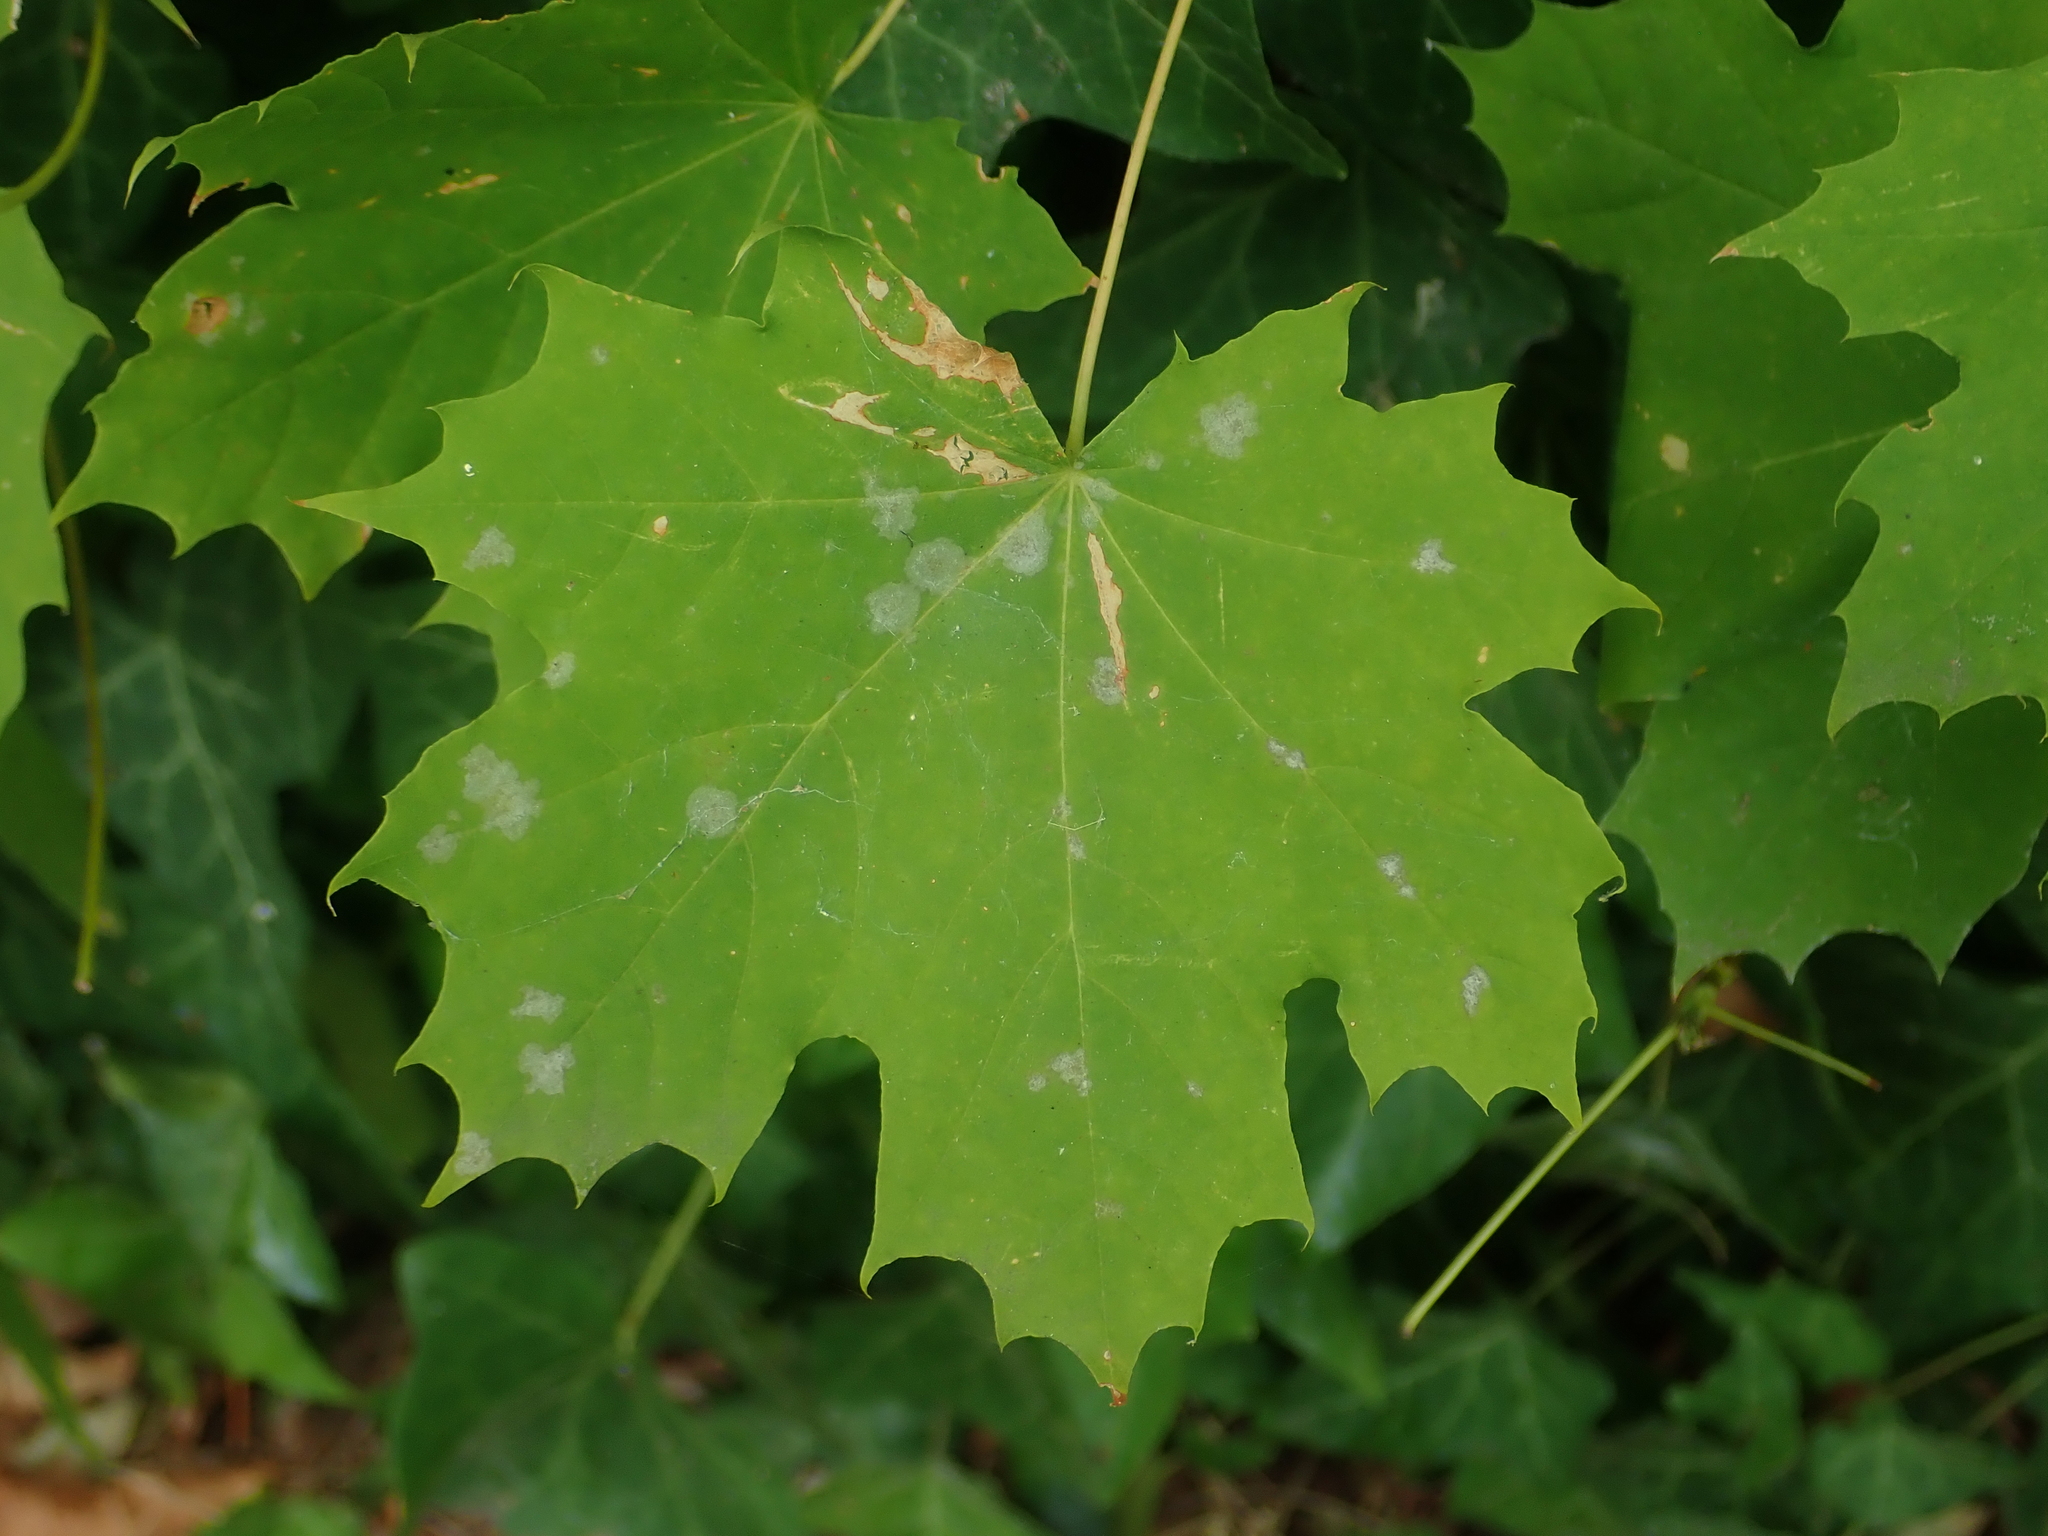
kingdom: Plantae
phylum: Tracheophyta
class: Magnoliopsida
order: Sapindales
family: Sapindaceae
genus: Acer
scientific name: Acer platanoides
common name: Norway maple
